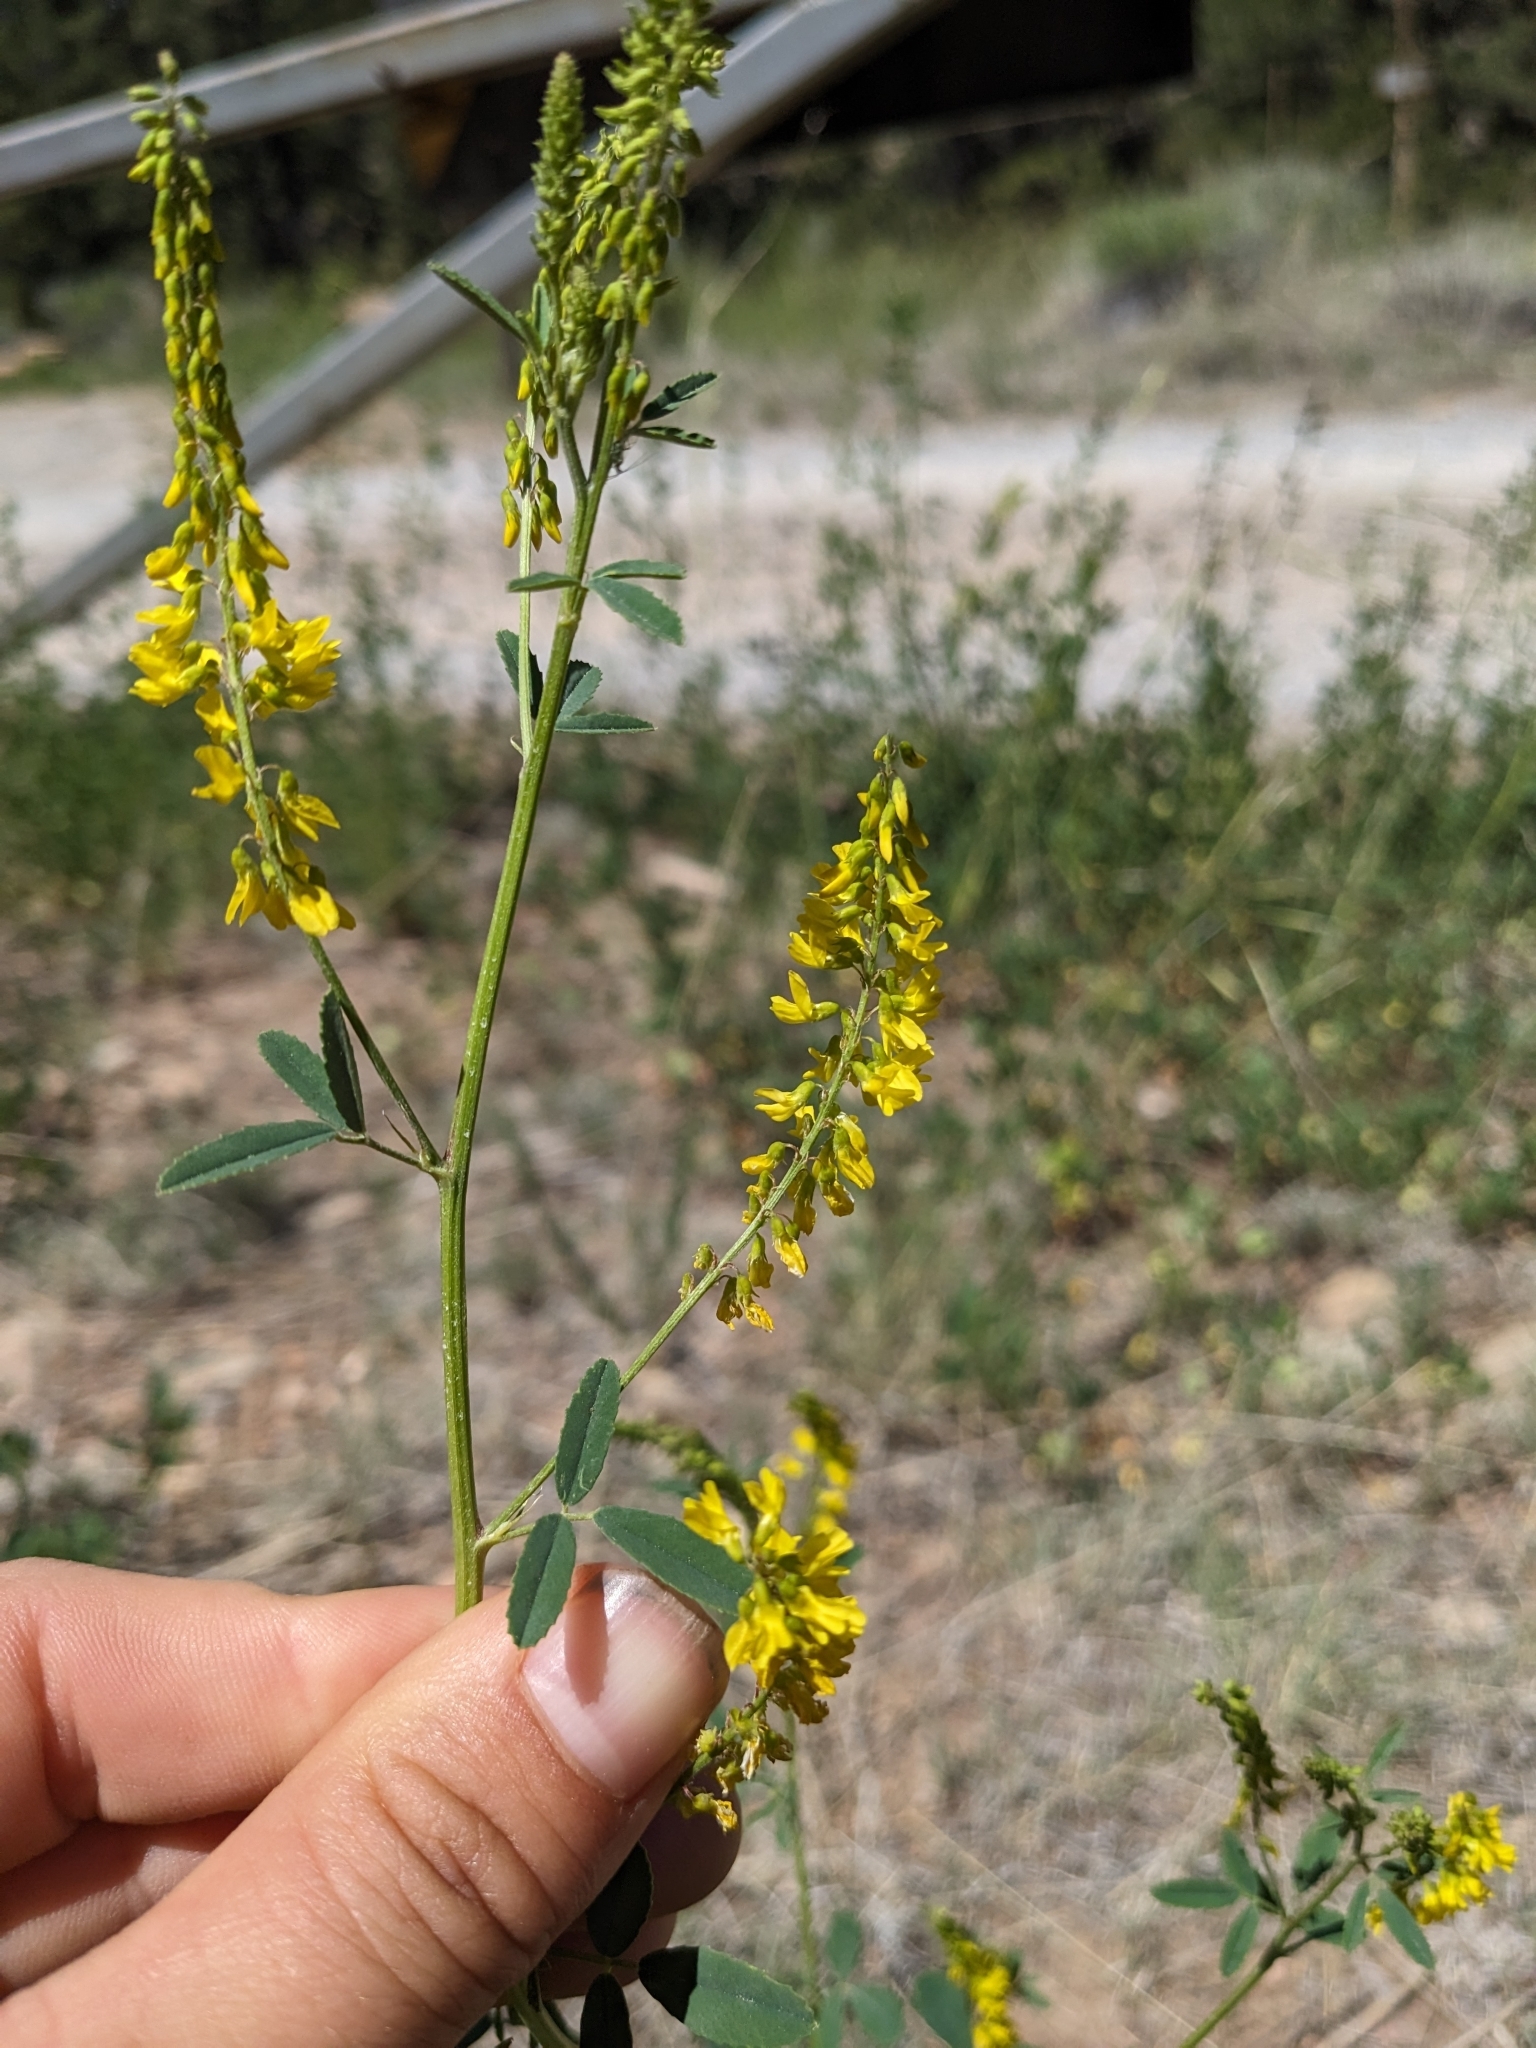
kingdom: Plantae
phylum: Tracheophyta
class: Magnoliopsida
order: Fabales
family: Fabaceae
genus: Melilotus
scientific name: Melilotus officinalis
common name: Sweetclover
